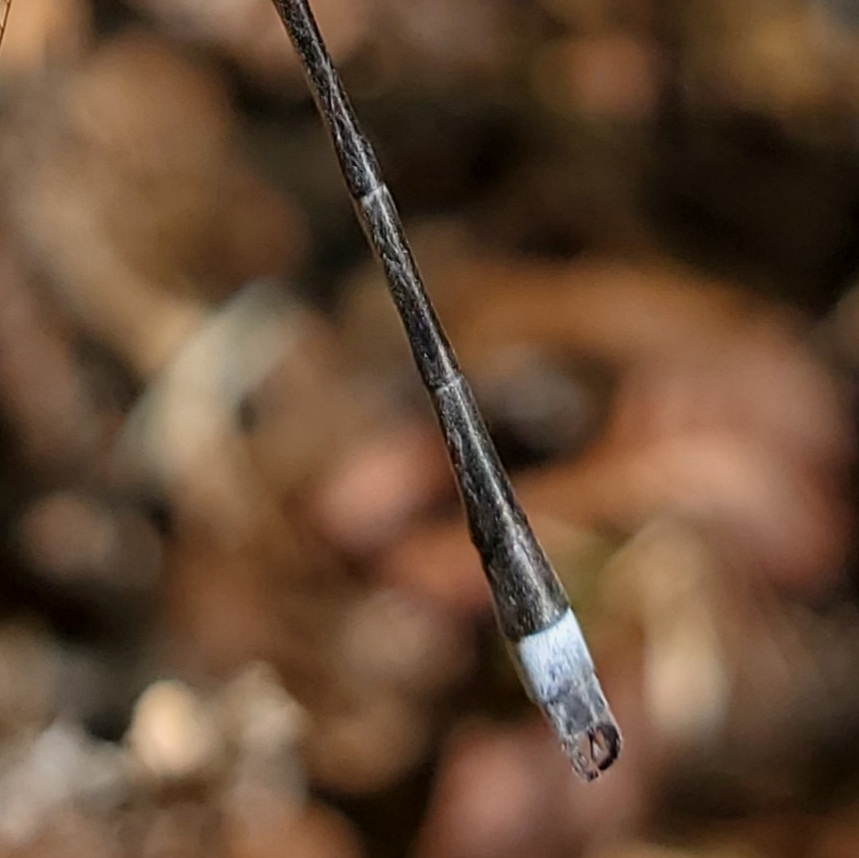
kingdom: Animalia
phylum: Arthropoda
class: Insecta
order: Odonata
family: Lestidae
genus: Lestes
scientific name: Lestes australis
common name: Southern spreadwing
